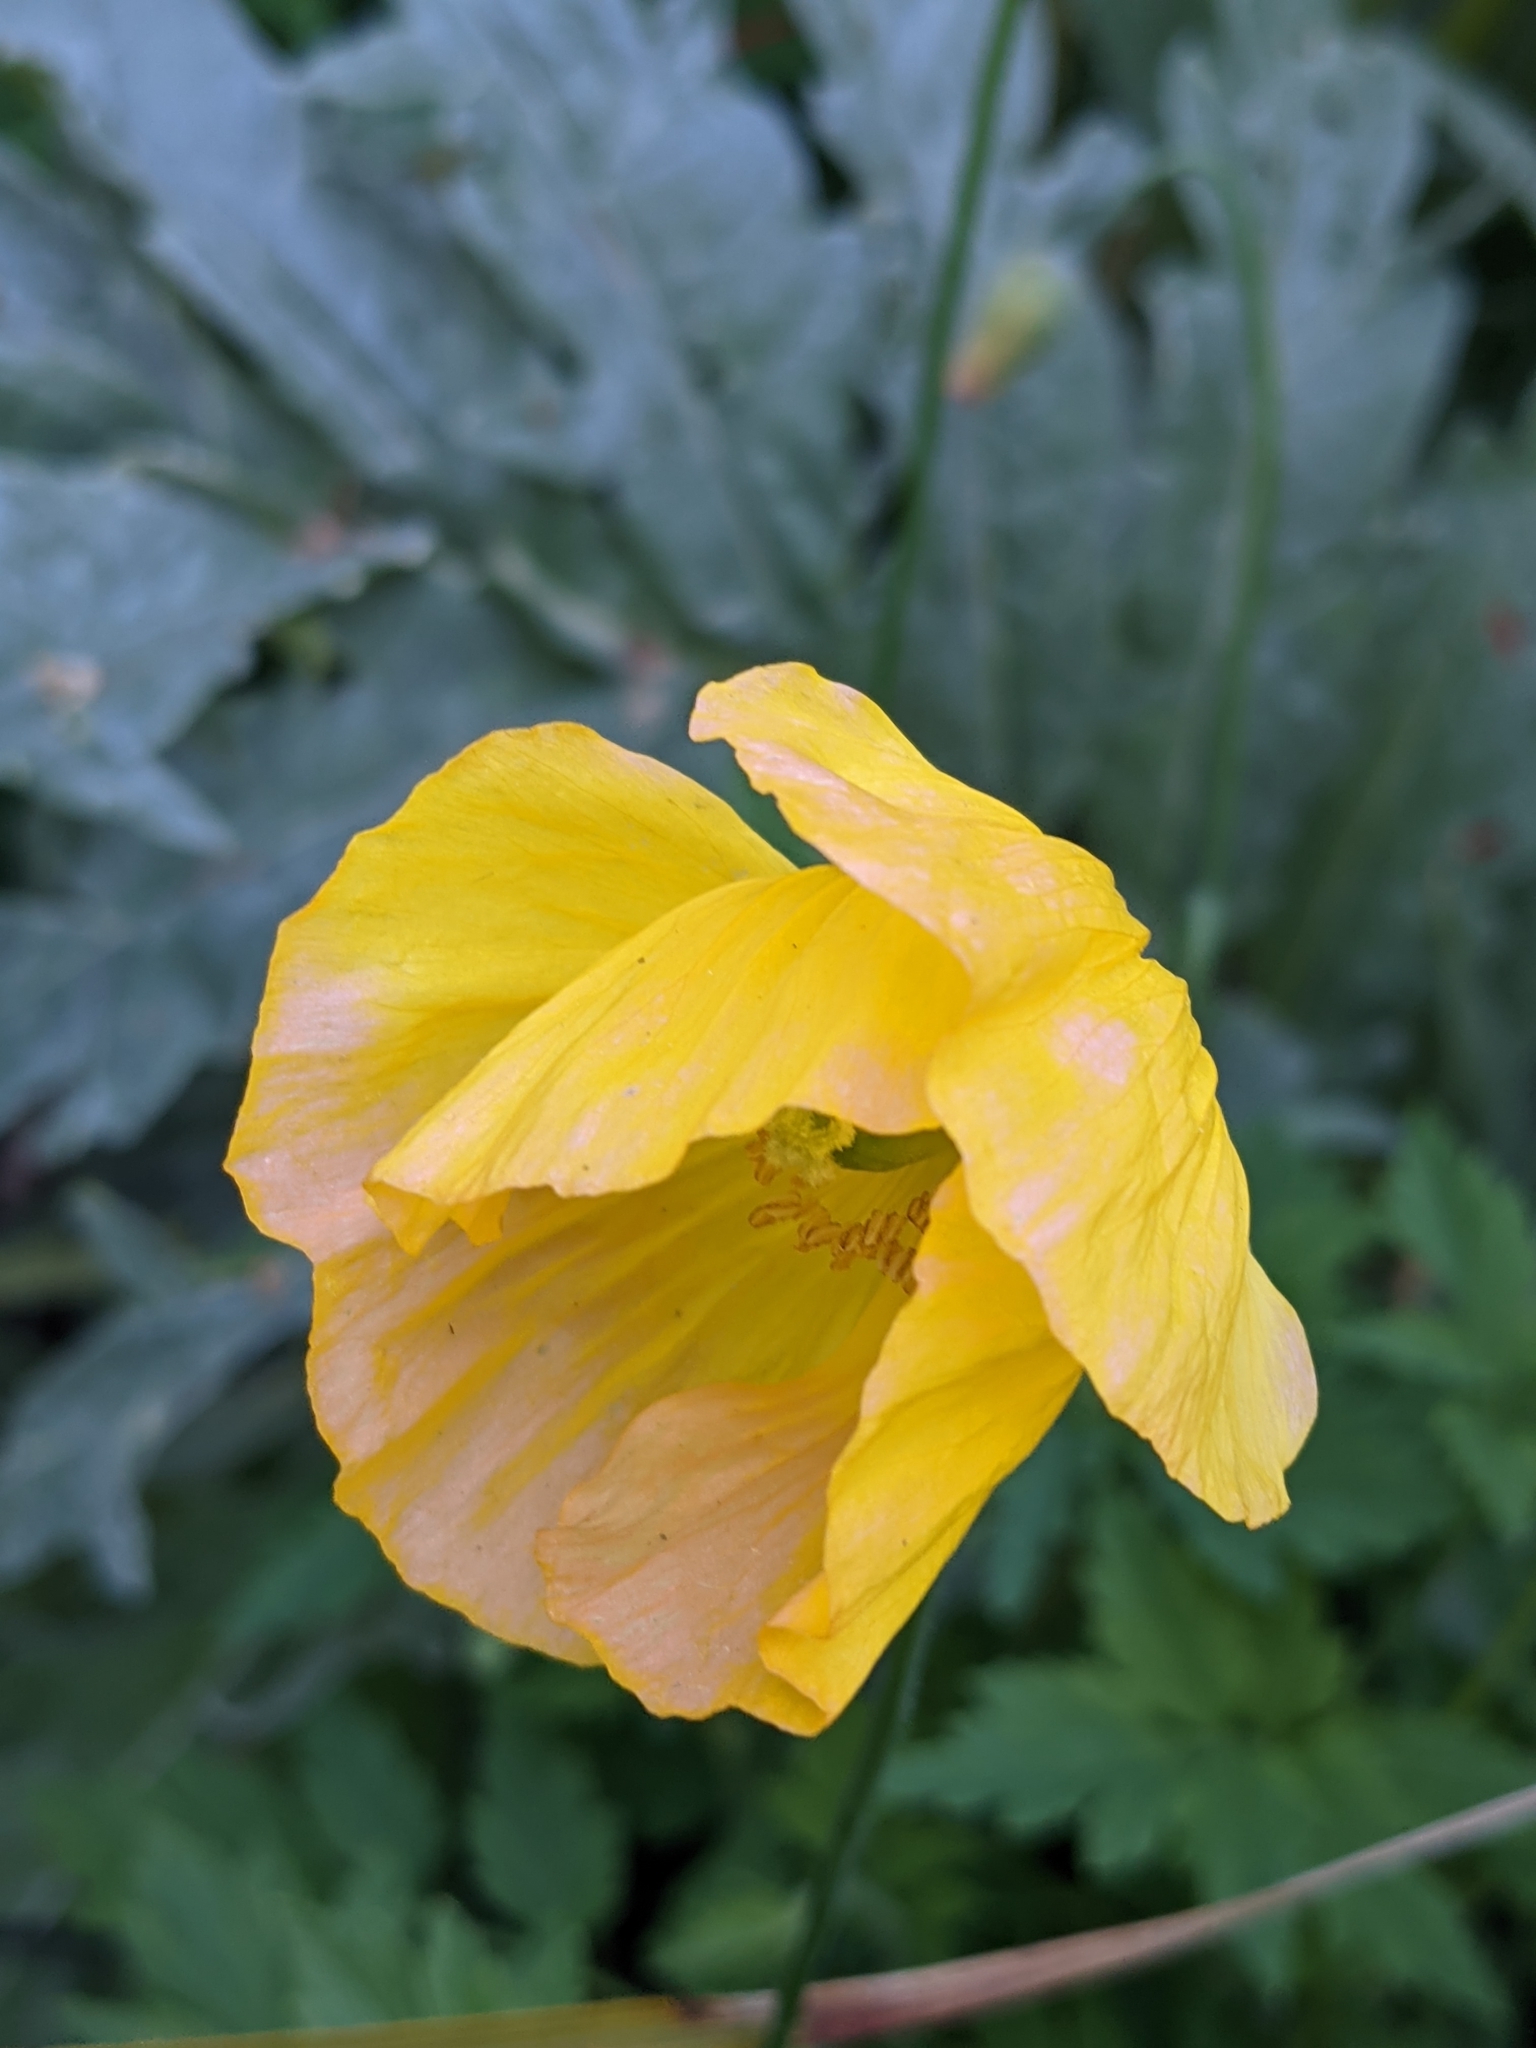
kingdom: Plantae
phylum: Tracheophyta
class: Magnoliopsida
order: Ranunculales
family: Papaveraceae
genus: Papaver
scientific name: Papaver cambricum
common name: Poppy
